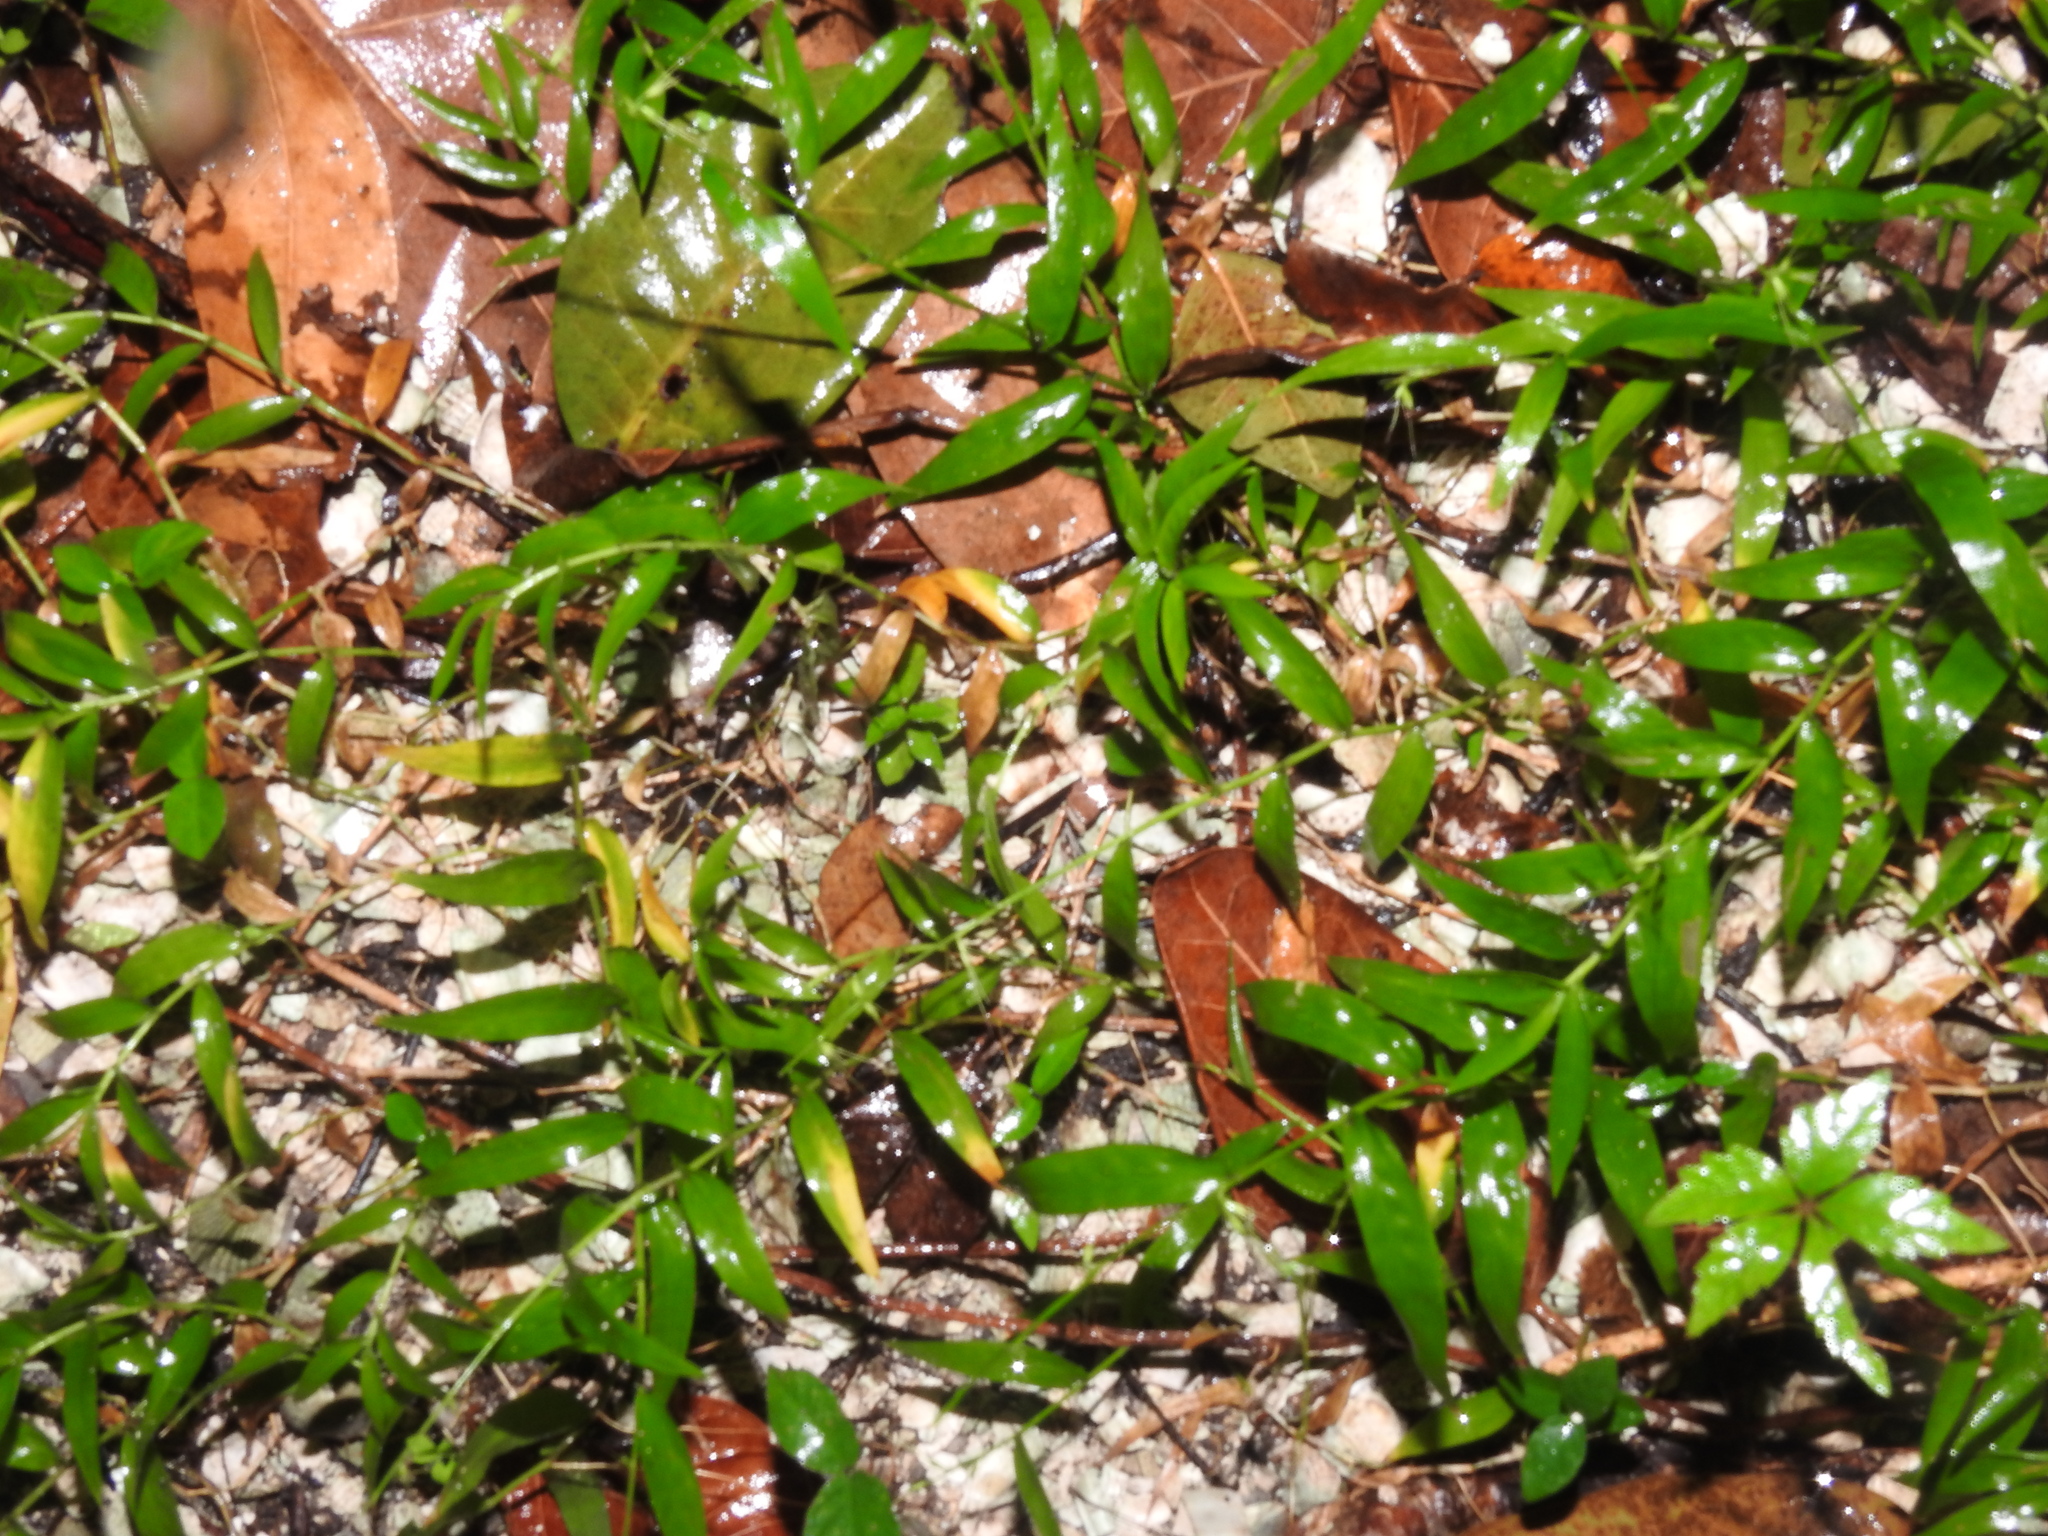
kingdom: Plantae
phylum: Tracheophyta
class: Liliopsida
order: Poales
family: Poaceae
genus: Lasiacis
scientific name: Lasiacis divaricata
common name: Smallcane
